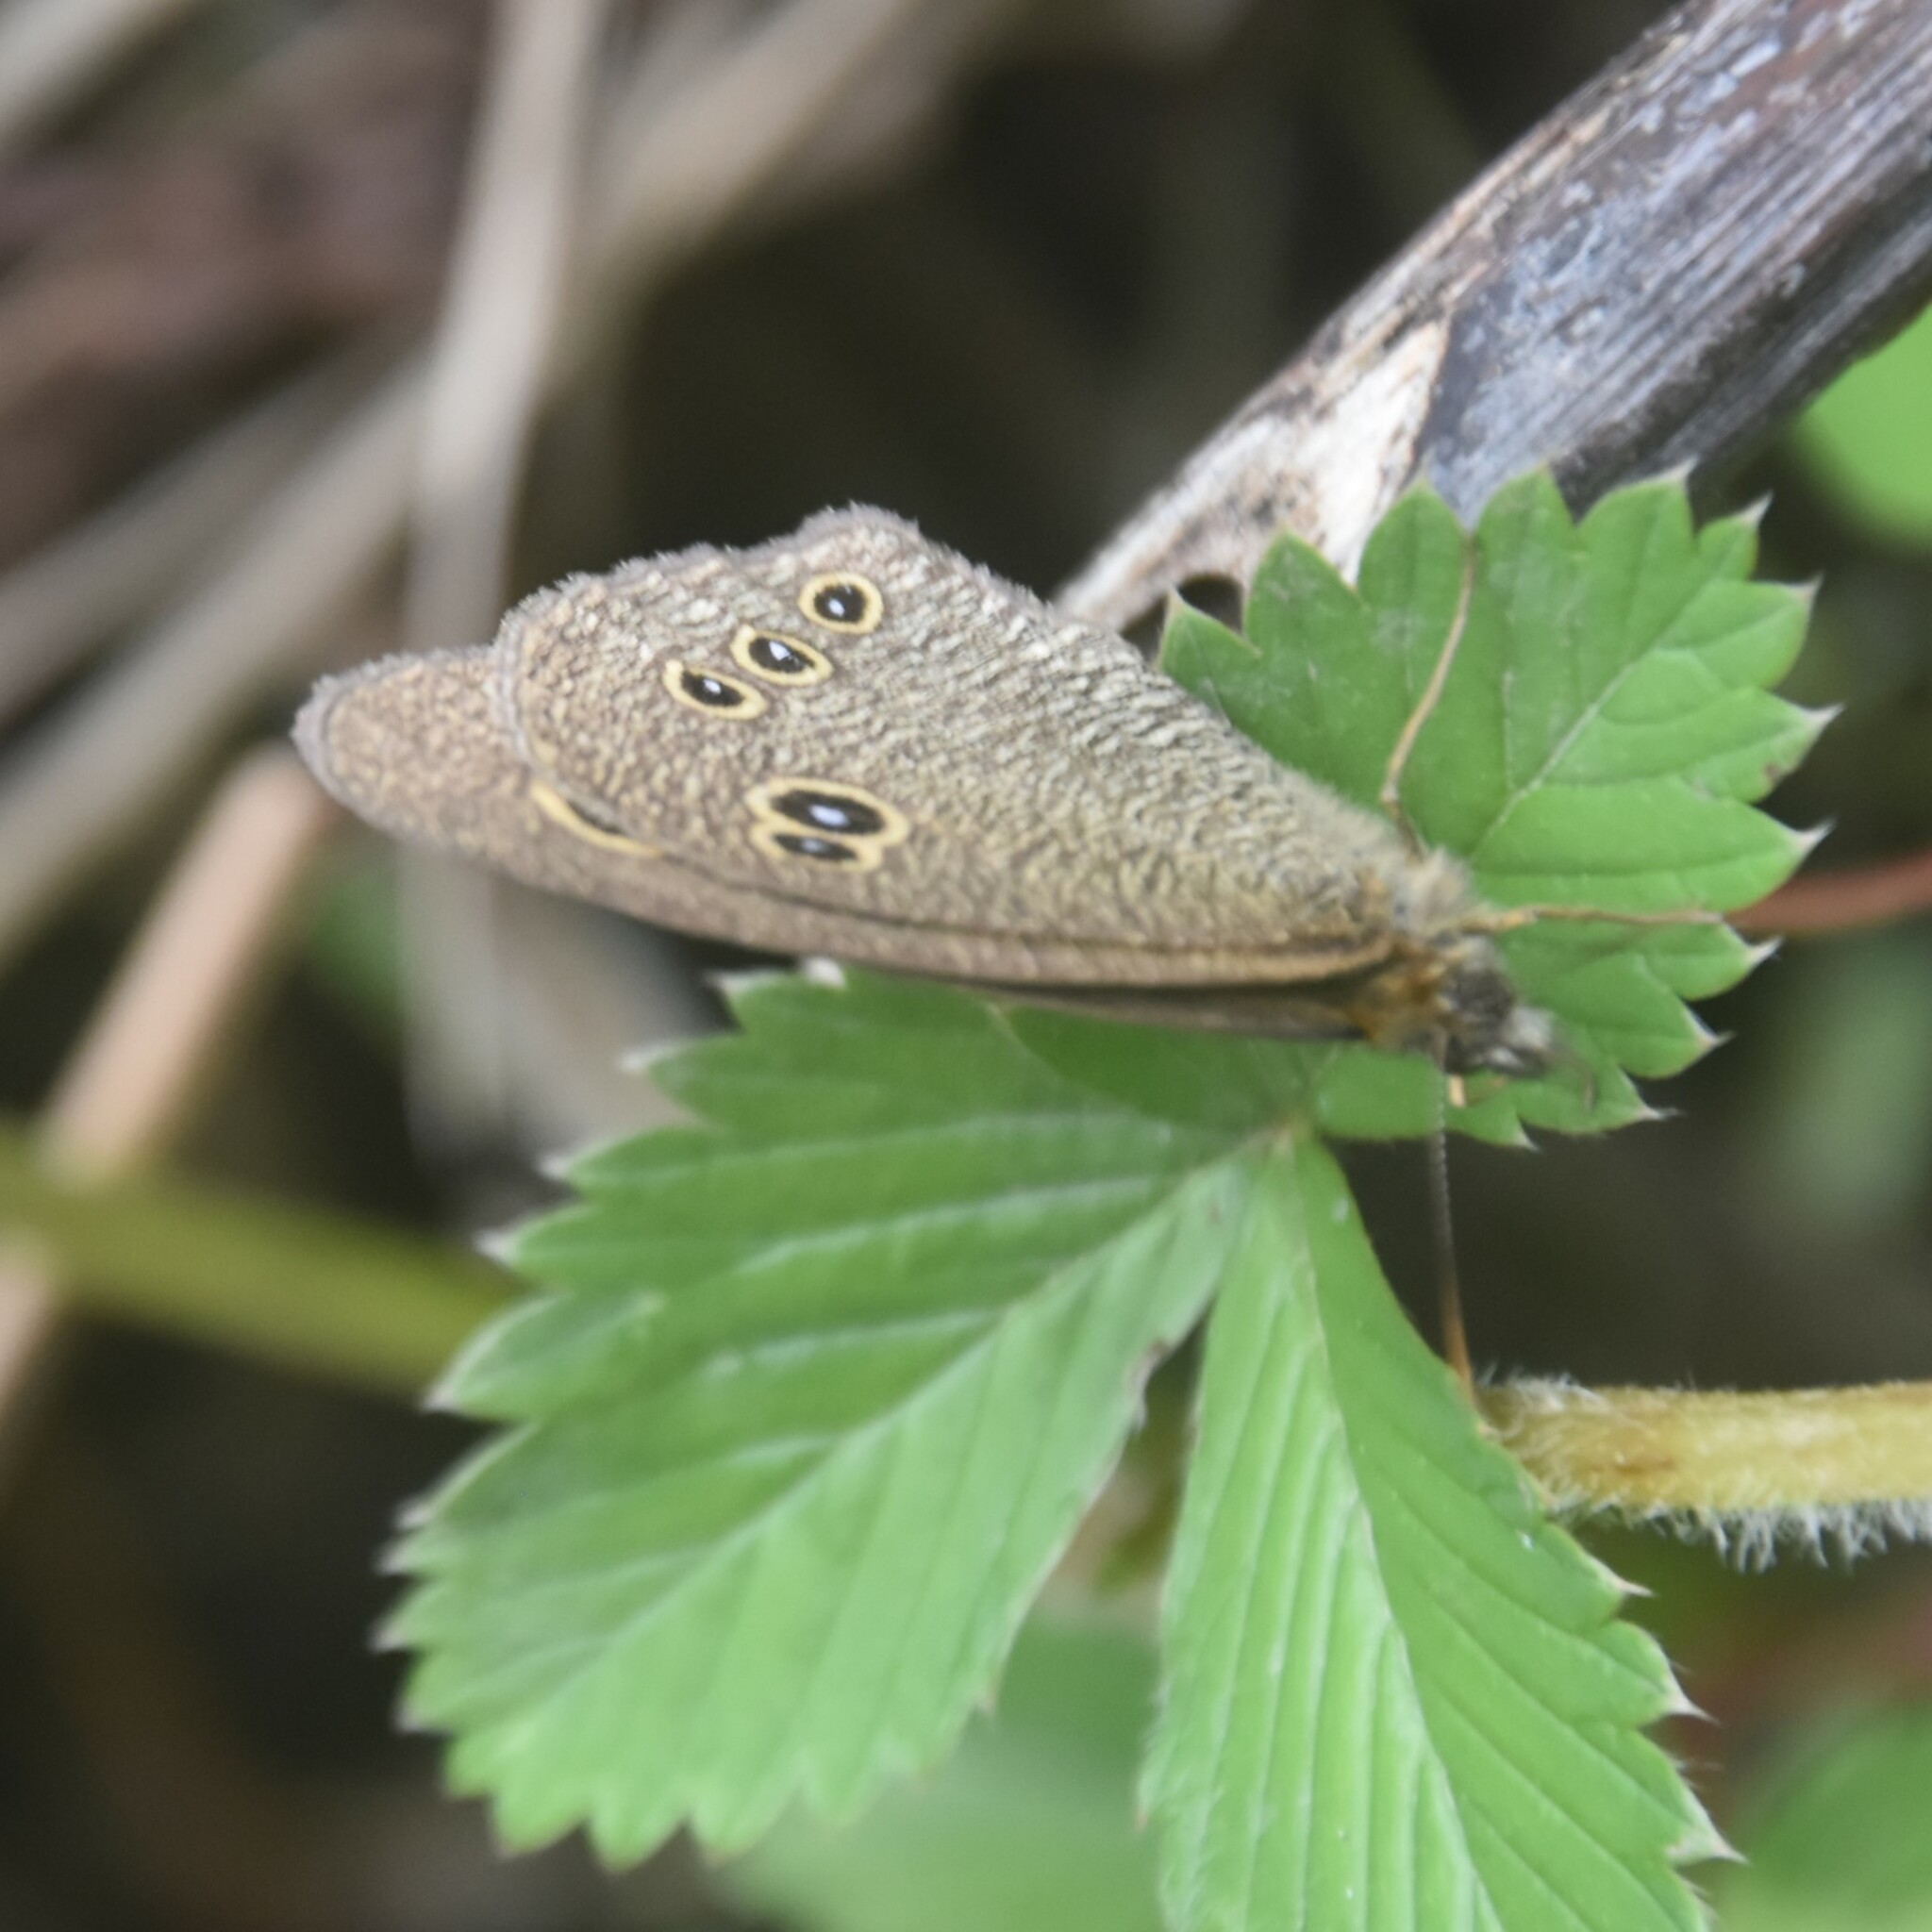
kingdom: Animalia
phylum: Arthropoda
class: Insecta
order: Lepidoptera
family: Nymphalidae
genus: Ypthima
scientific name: Ypthima nikaea
